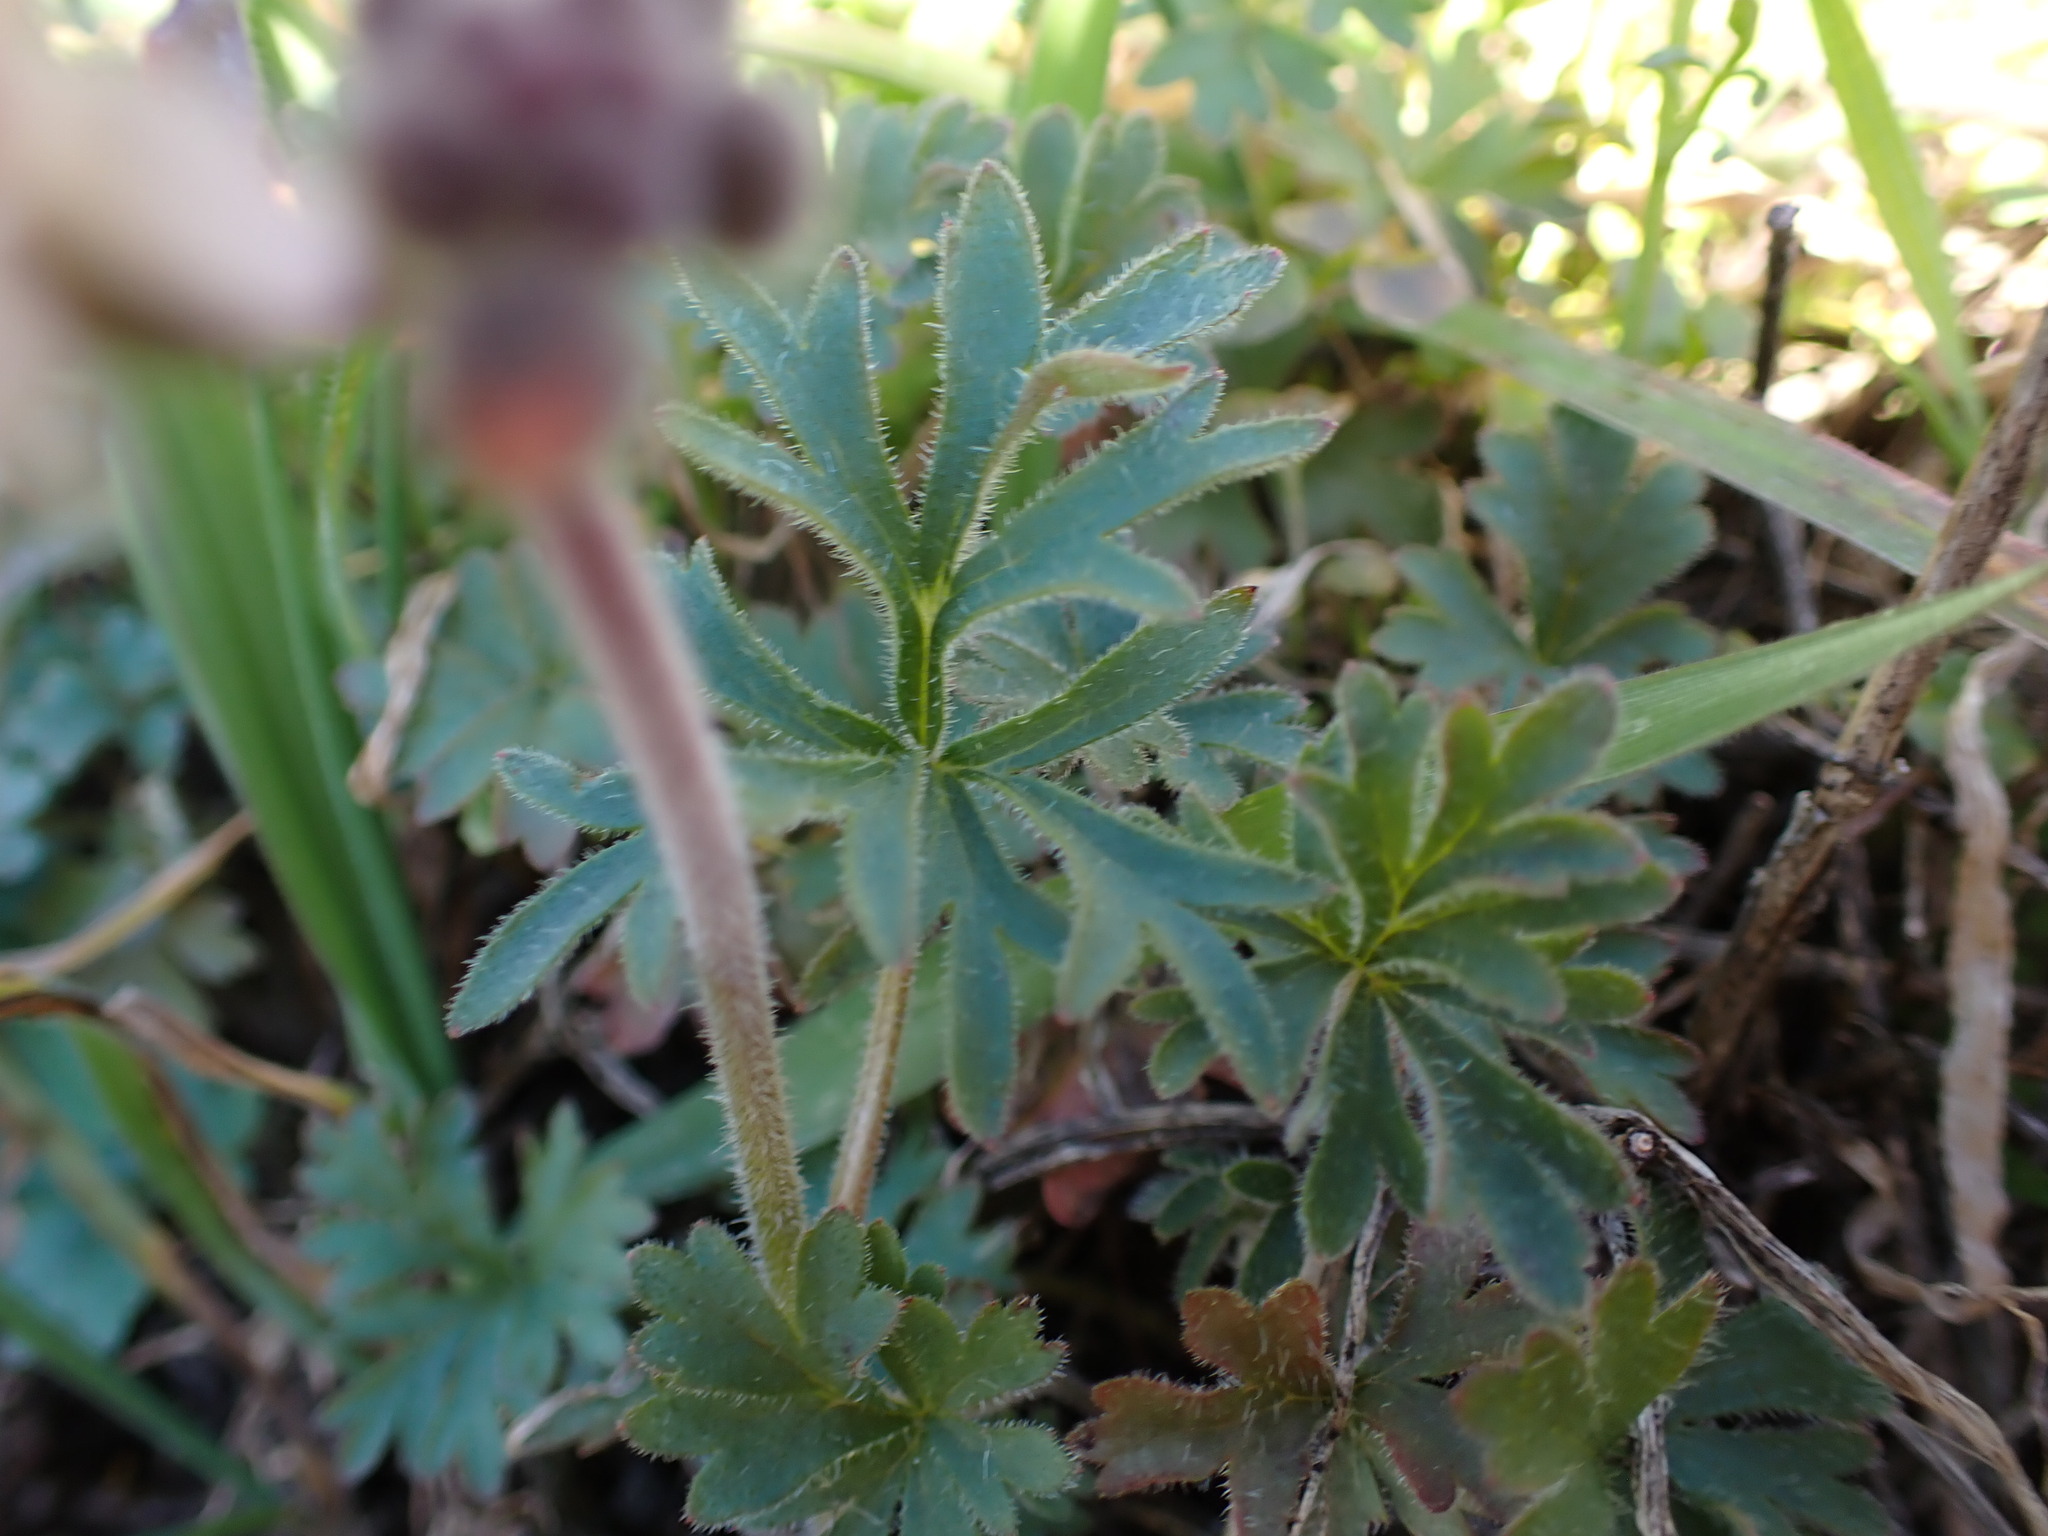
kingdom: Plantae
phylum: Tracheophyta
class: Magnoliopsida
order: Saxifragales
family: Saxifragaceae
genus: Lithophragma
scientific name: Lithophragma parviflorum
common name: Small-flowered fringe-cup
